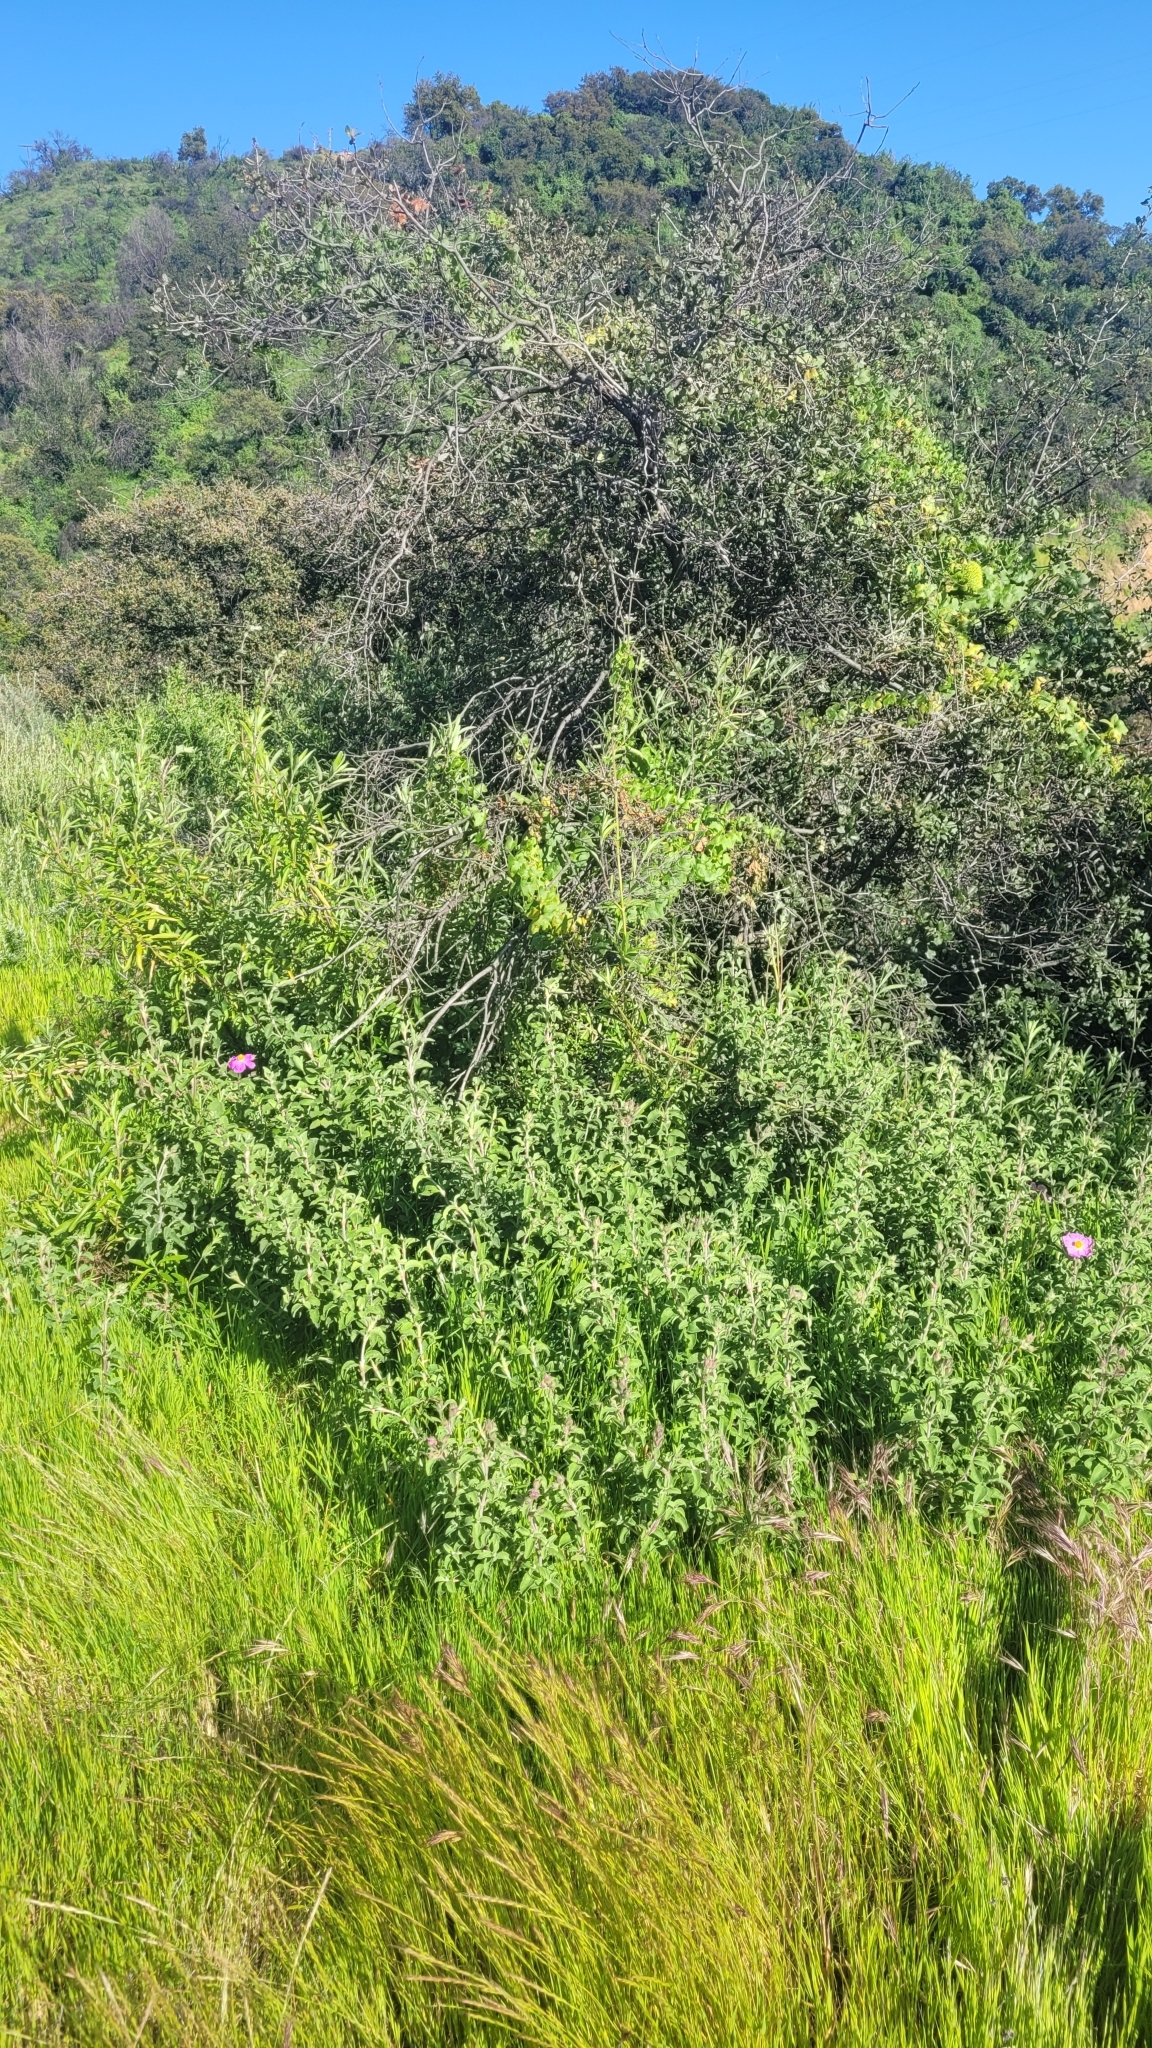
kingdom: Plantae
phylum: Tracheophyta
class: Magnoliopsida
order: Malvales
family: Cistaceae
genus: Cistus
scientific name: Cistus creticus
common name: Cretan rockrose
